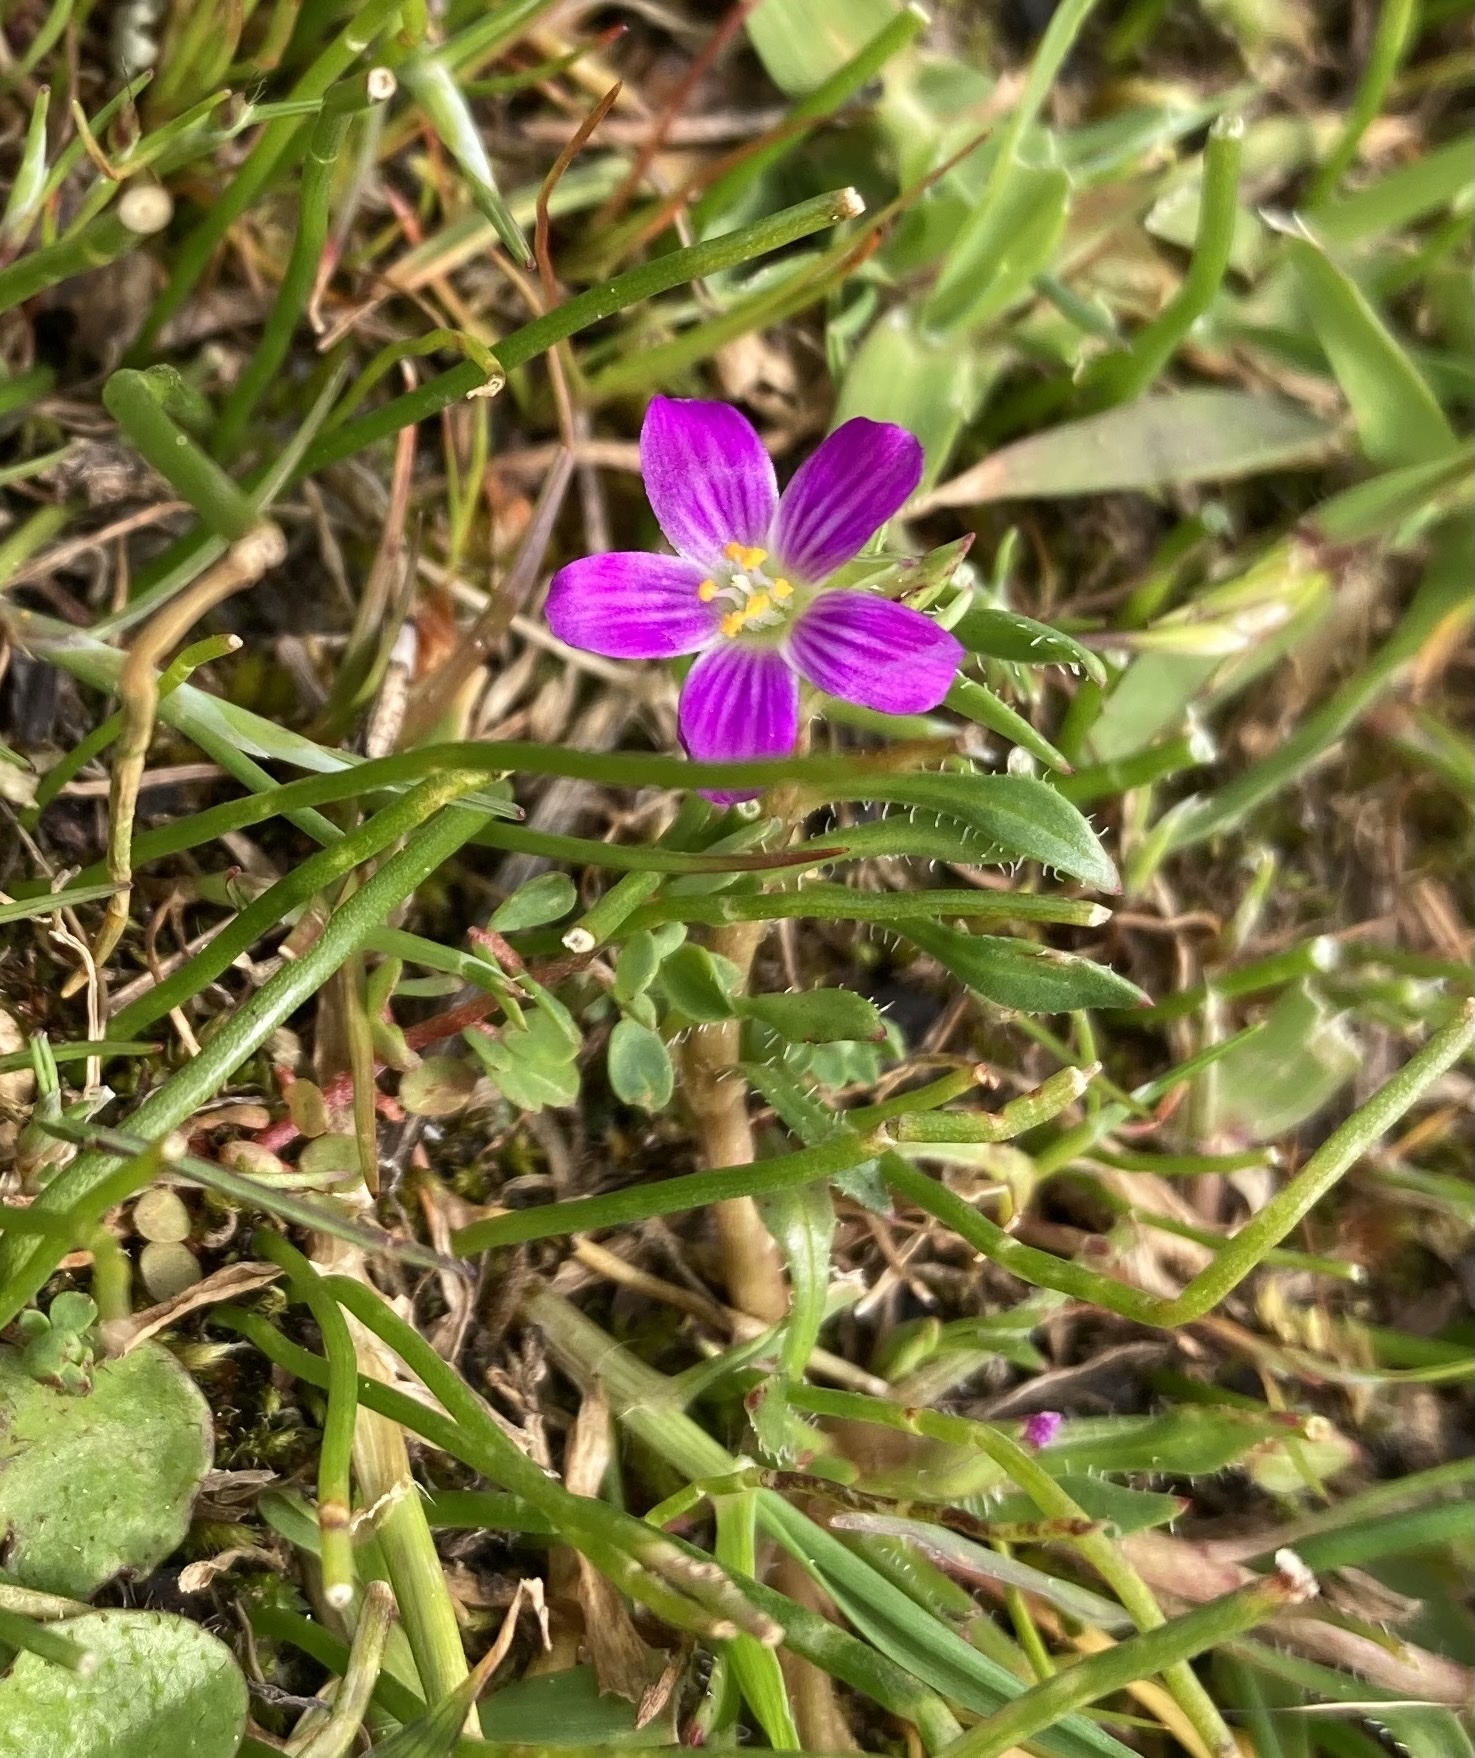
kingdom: Plantae
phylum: Tracheophyta
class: Magnoliopsida
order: Caryophyllales
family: Montiaceae
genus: Calandrinia
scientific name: Calandrinia menziesii
